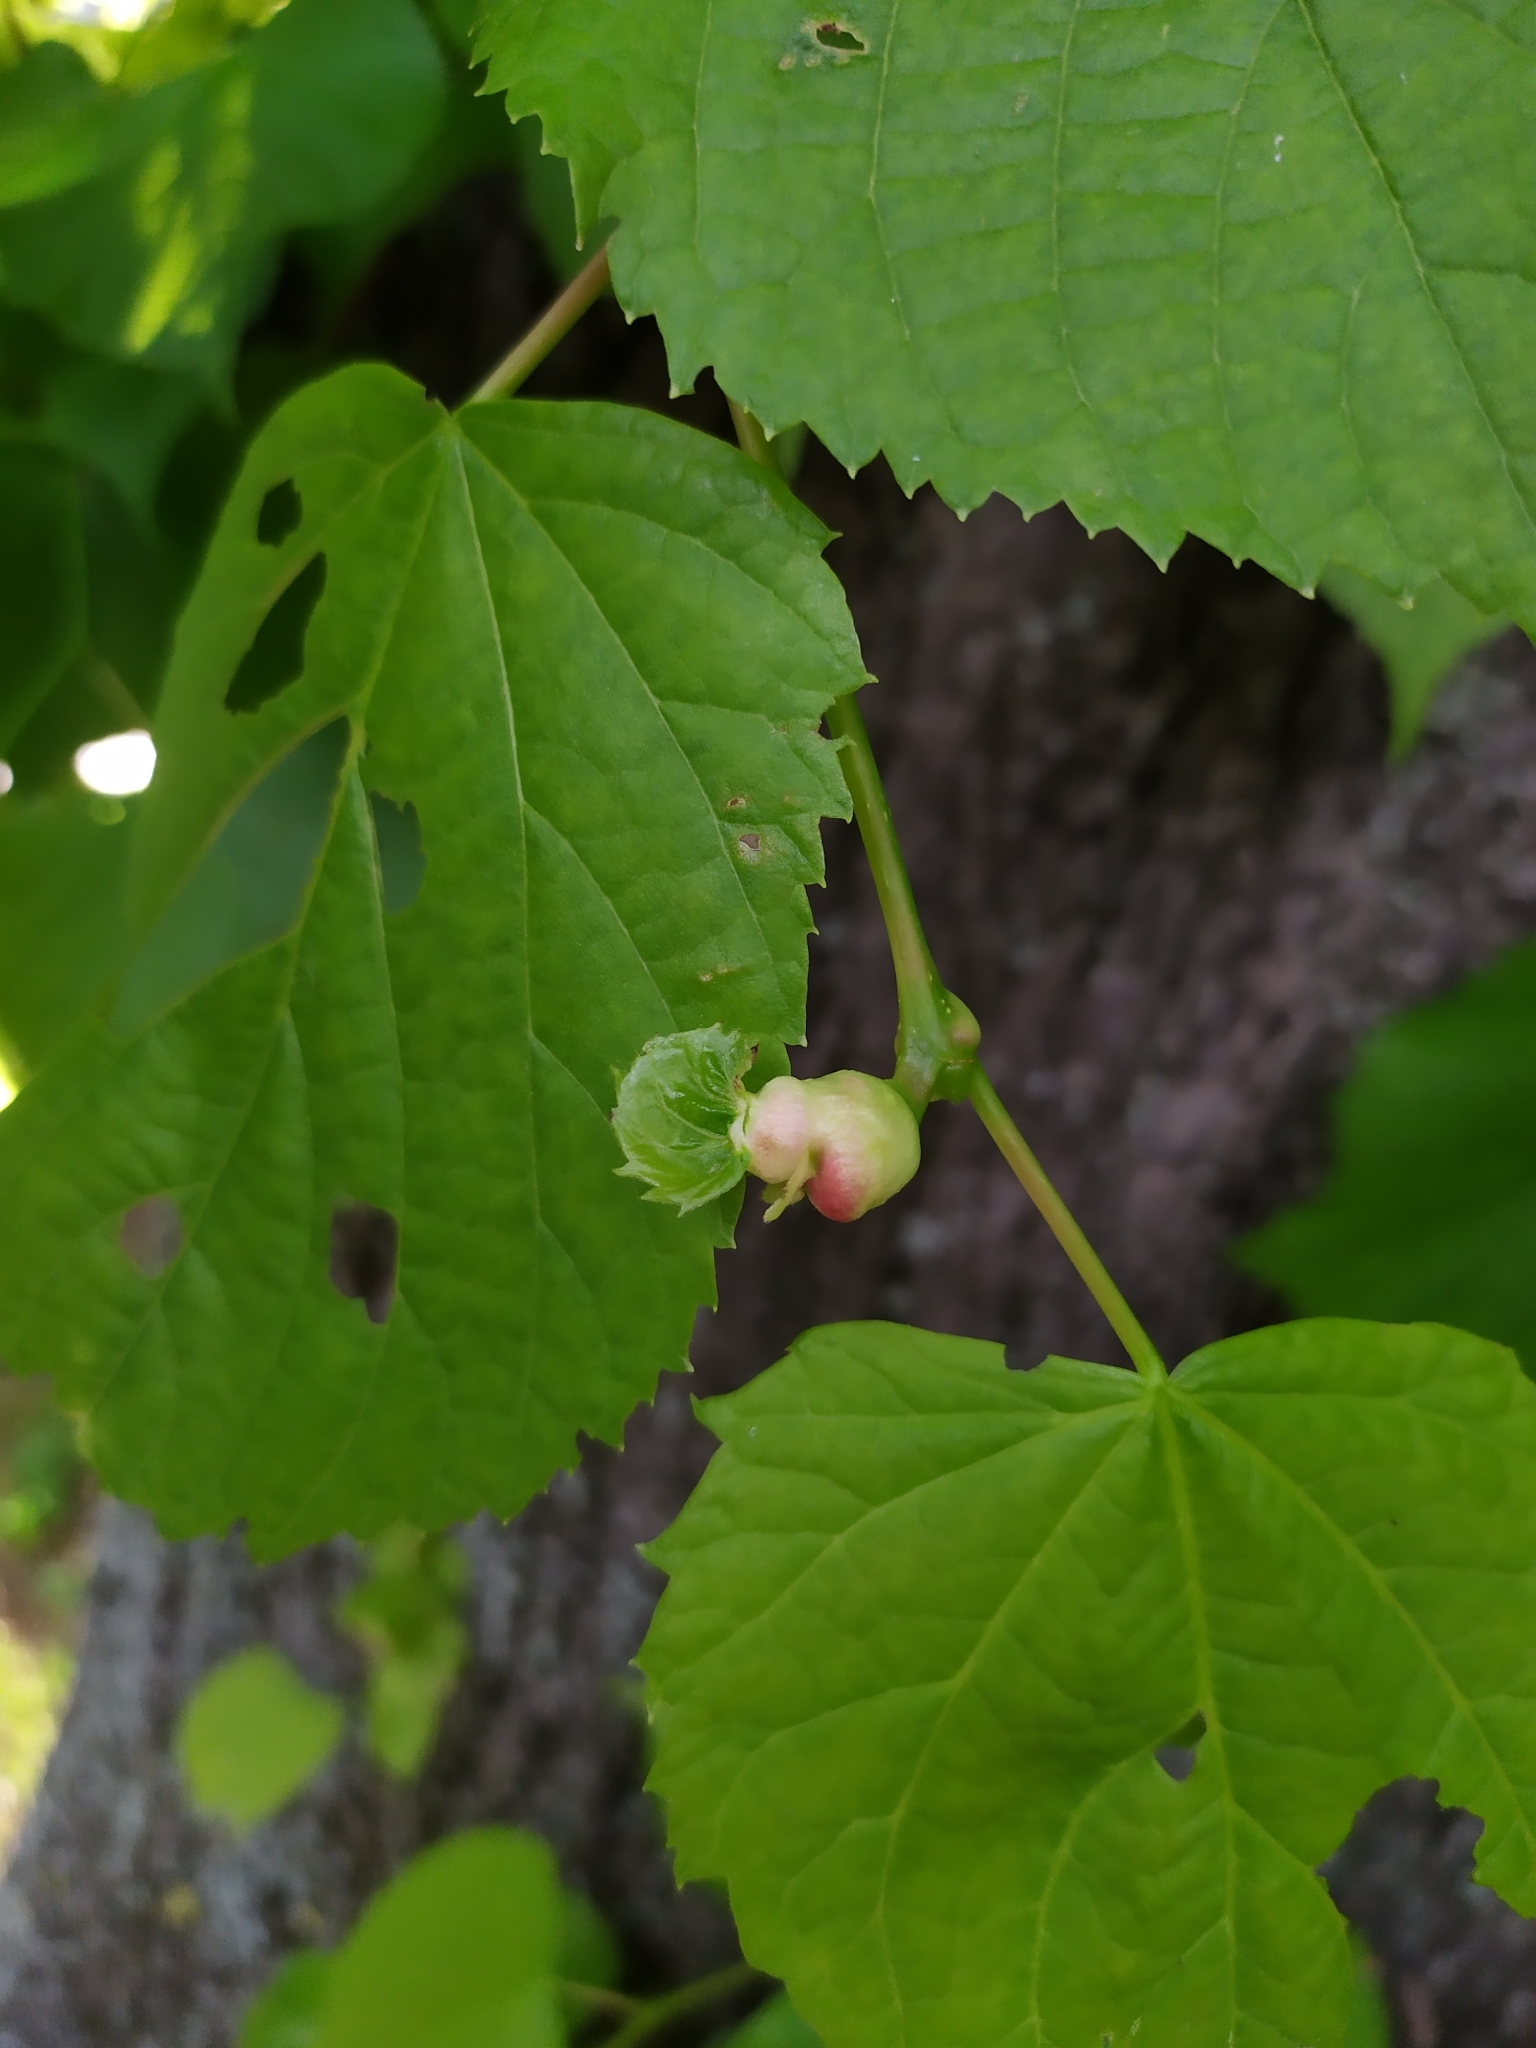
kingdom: Animalia
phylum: Arthropoda
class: Insecta
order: Diptera
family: Cecidomyiidae
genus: Contarinia
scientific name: Contarinia tiliarum
